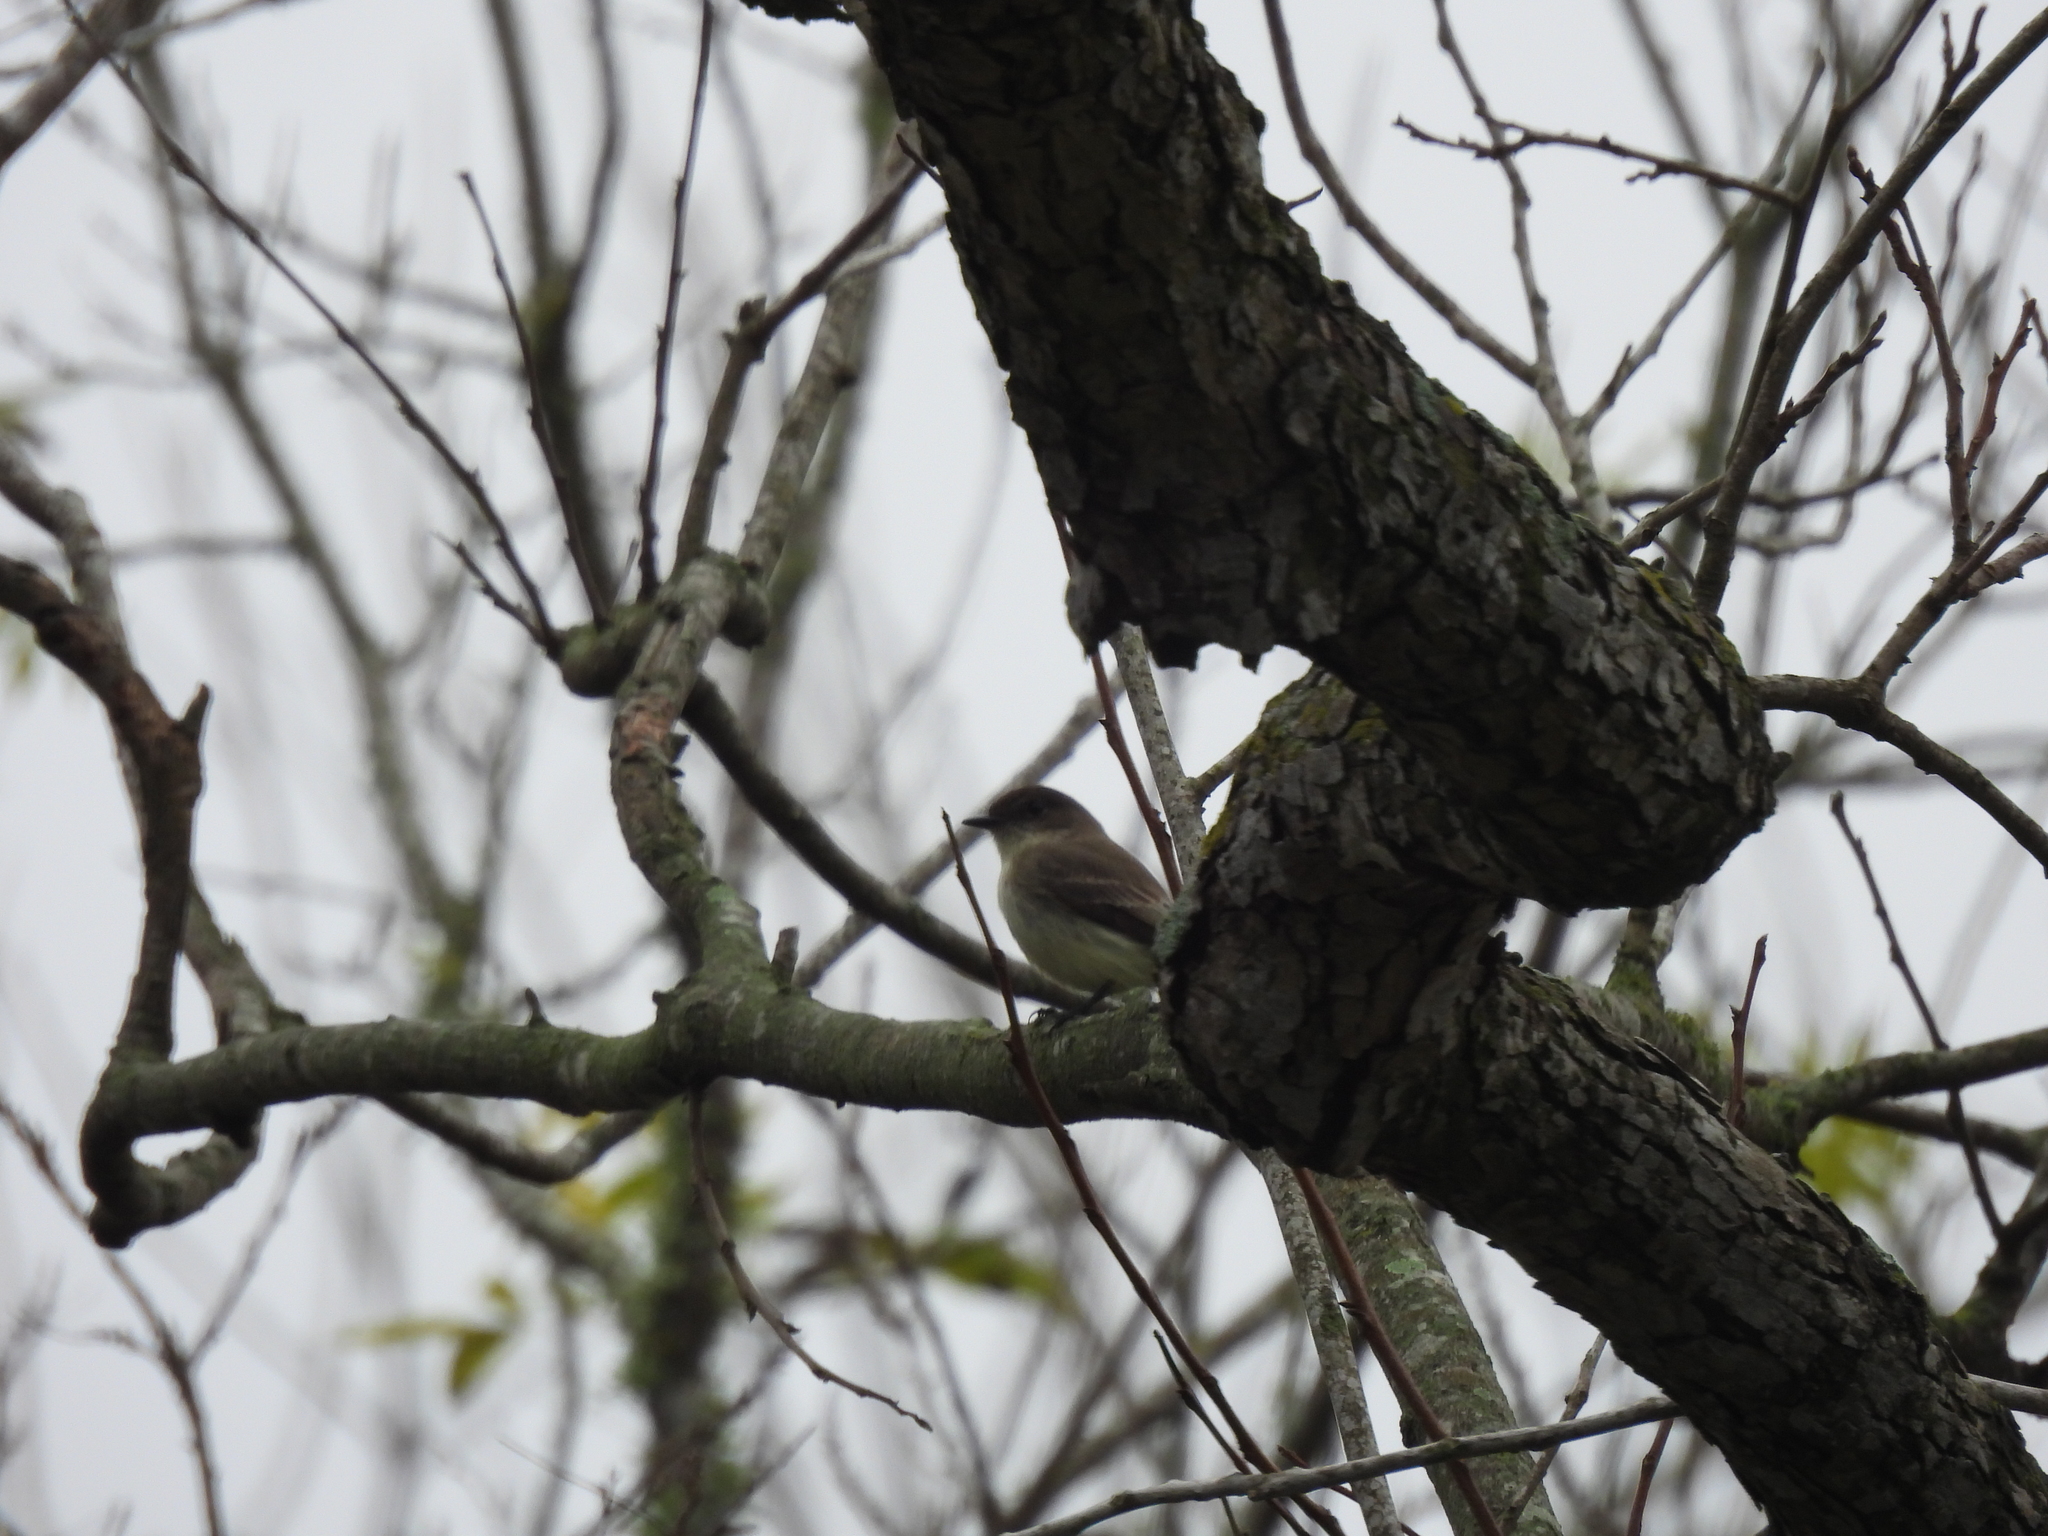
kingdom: Animalia
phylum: Chordata
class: Aves
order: Passeriformes
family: Tyrannidae
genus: Sayornis
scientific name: Sayornis phoebe
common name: Eastern phoebe
